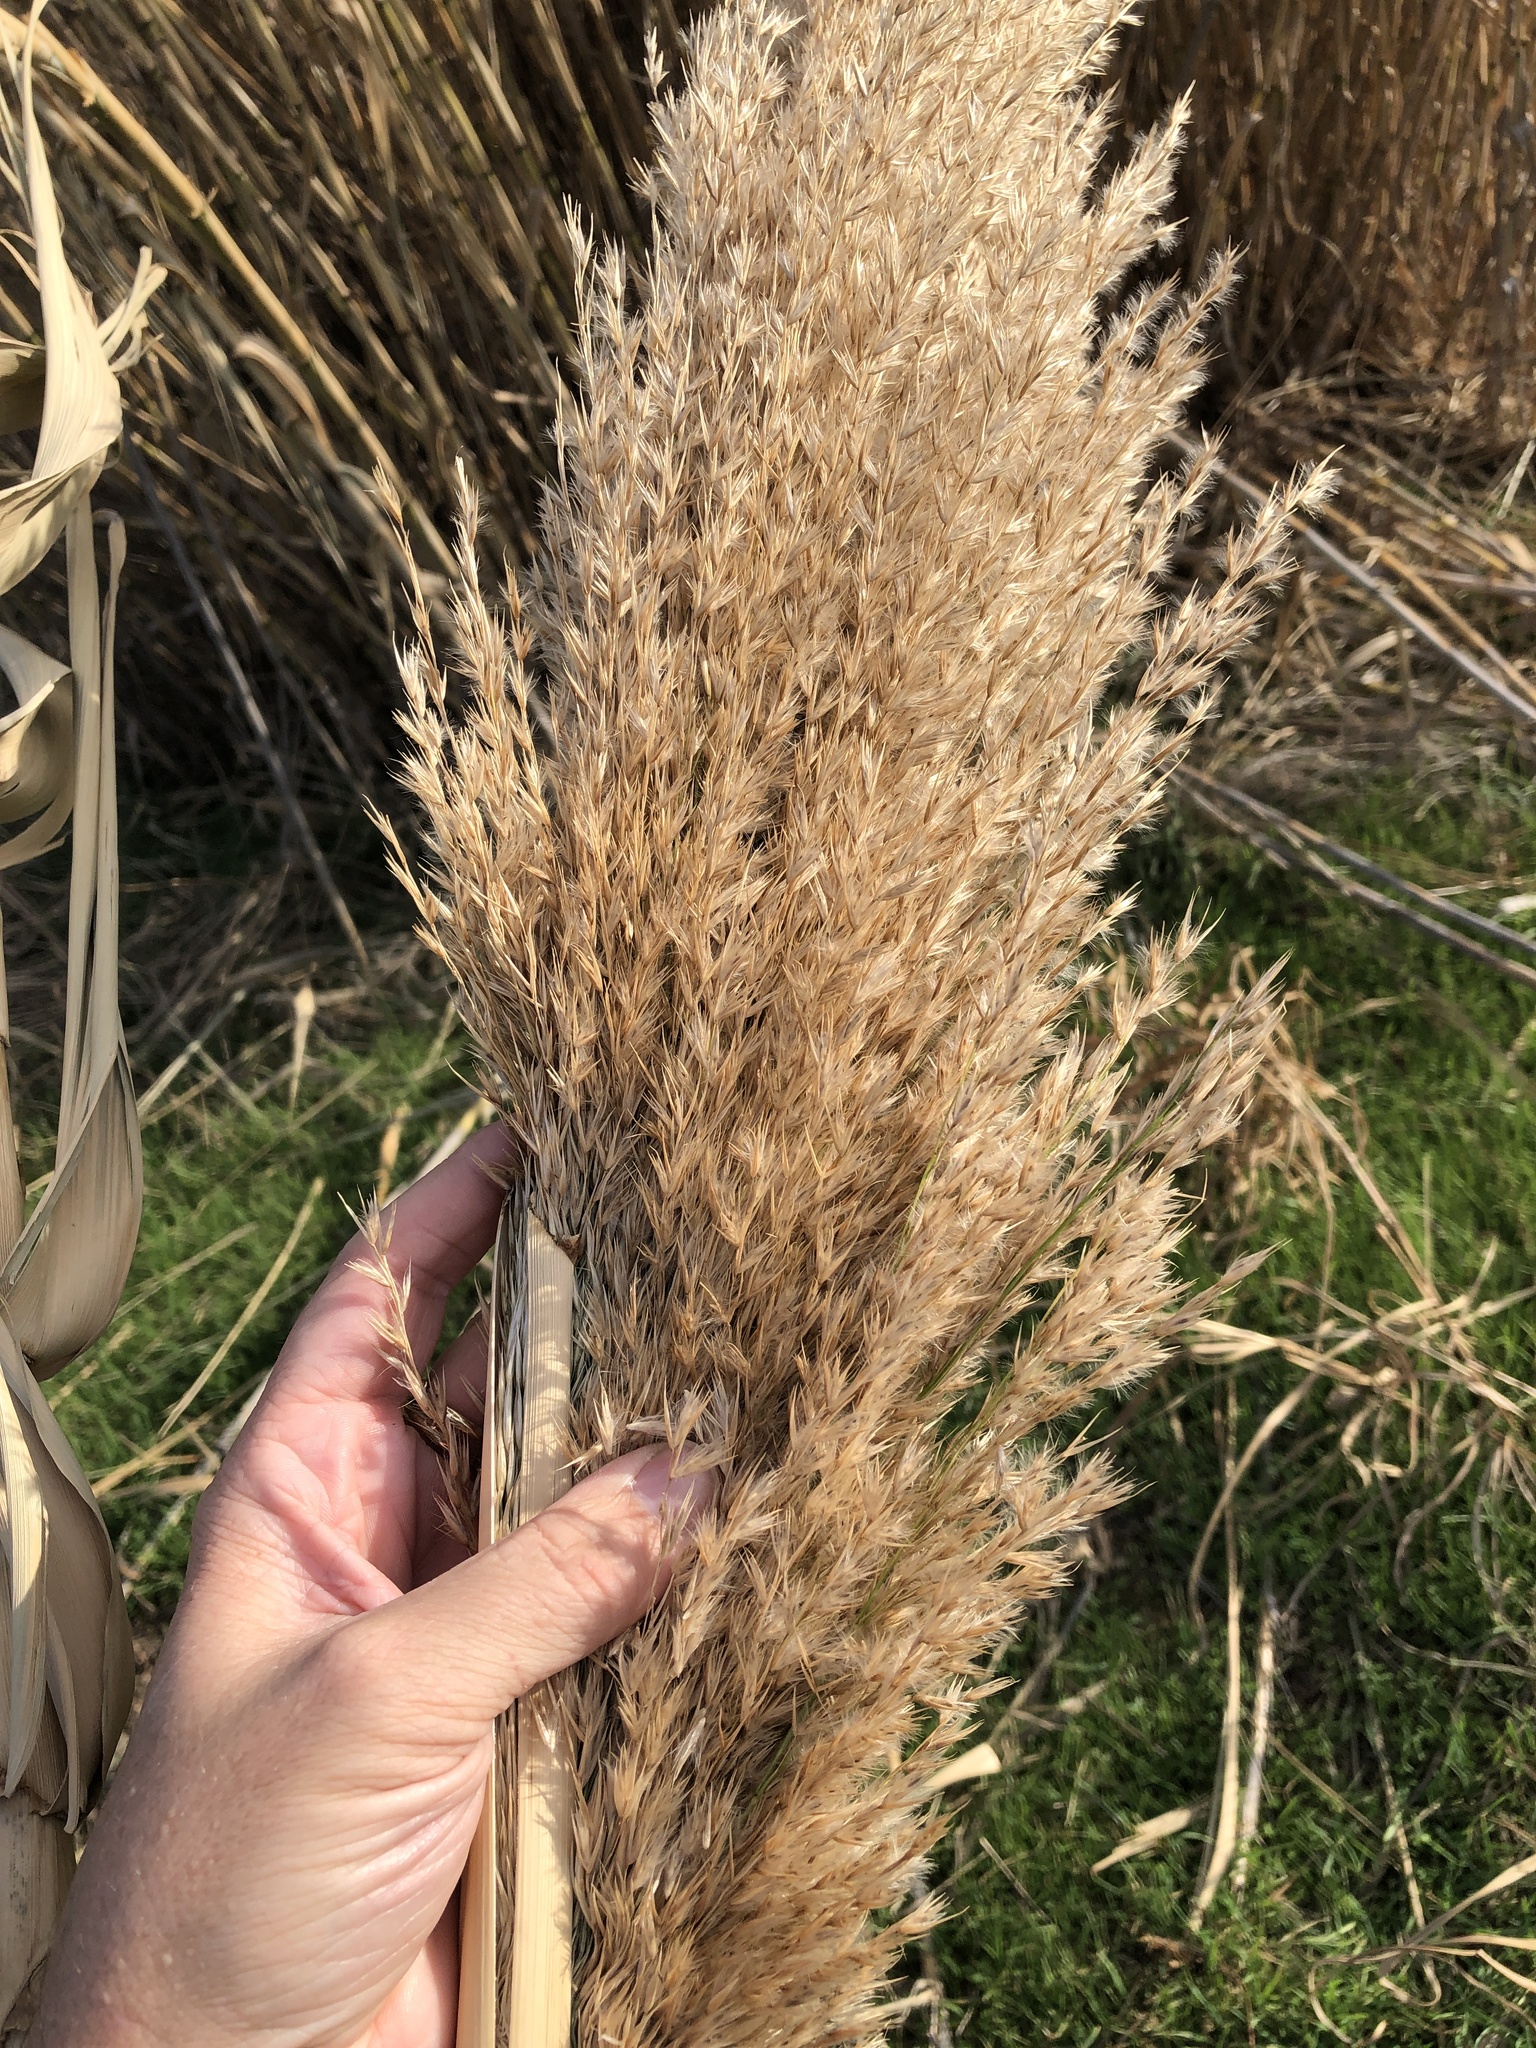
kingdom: Plantae
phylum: Tracheophyta
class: Liliopsida
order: Poales
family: Poaceae
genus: Arundo
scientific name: Arundo donax
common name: Giant reed
